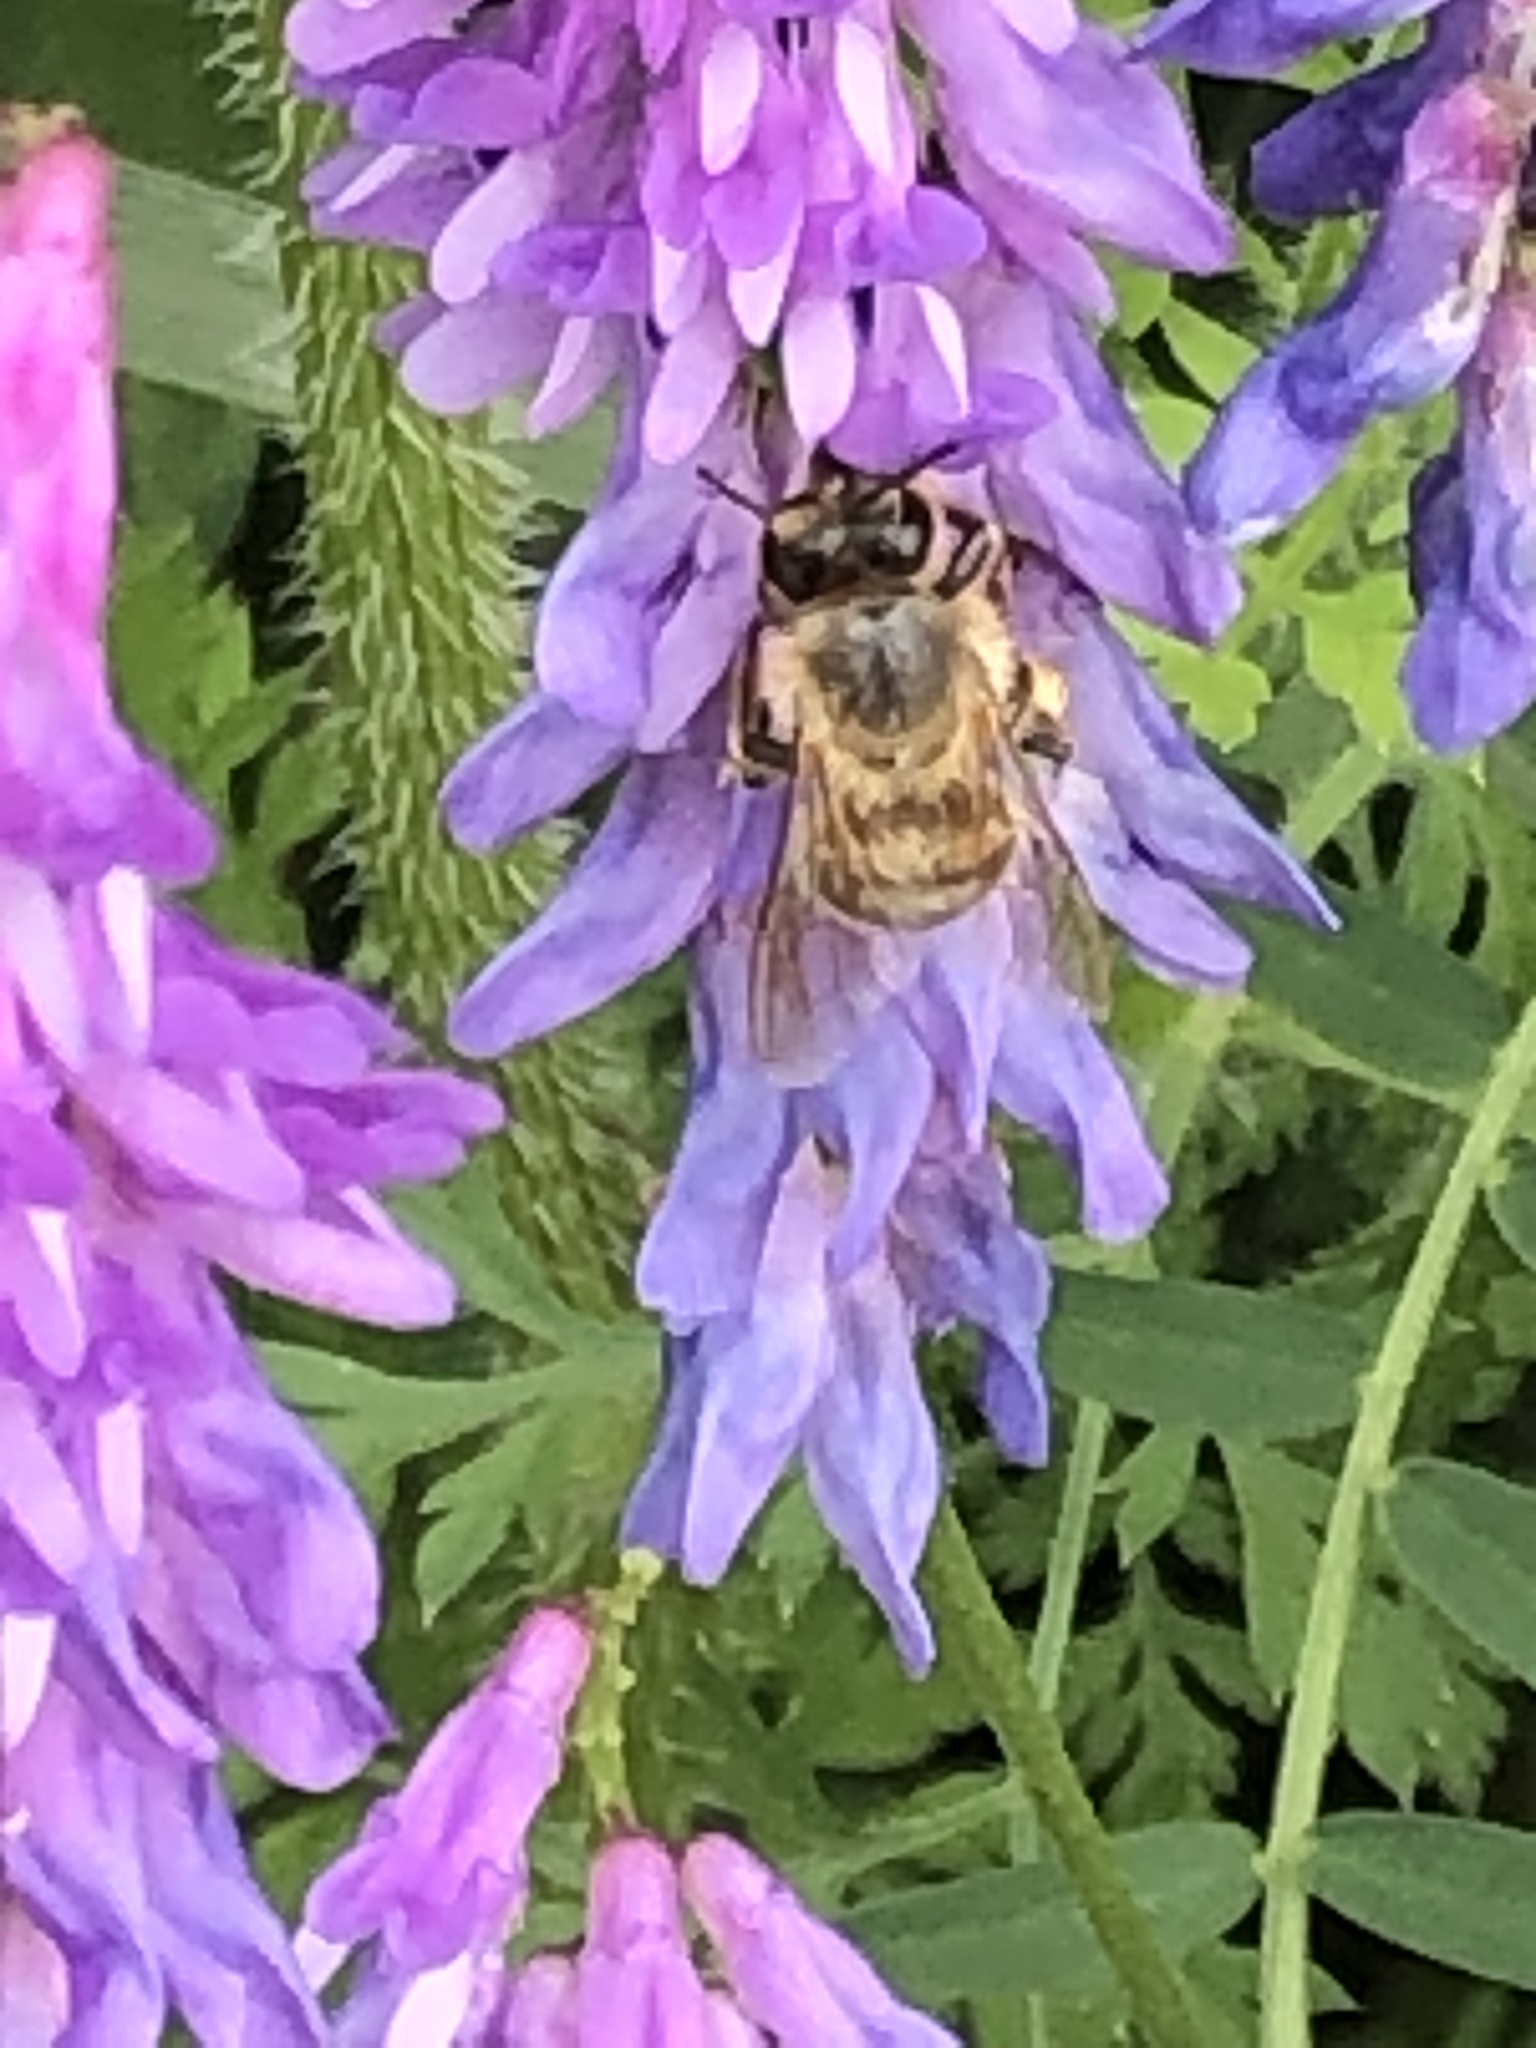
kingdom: Animalia
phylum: Arthropoda
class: Insecta
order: Hymenoptera
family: Apidae
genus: Apis
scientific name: Apis mellifera
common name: Honey bee
